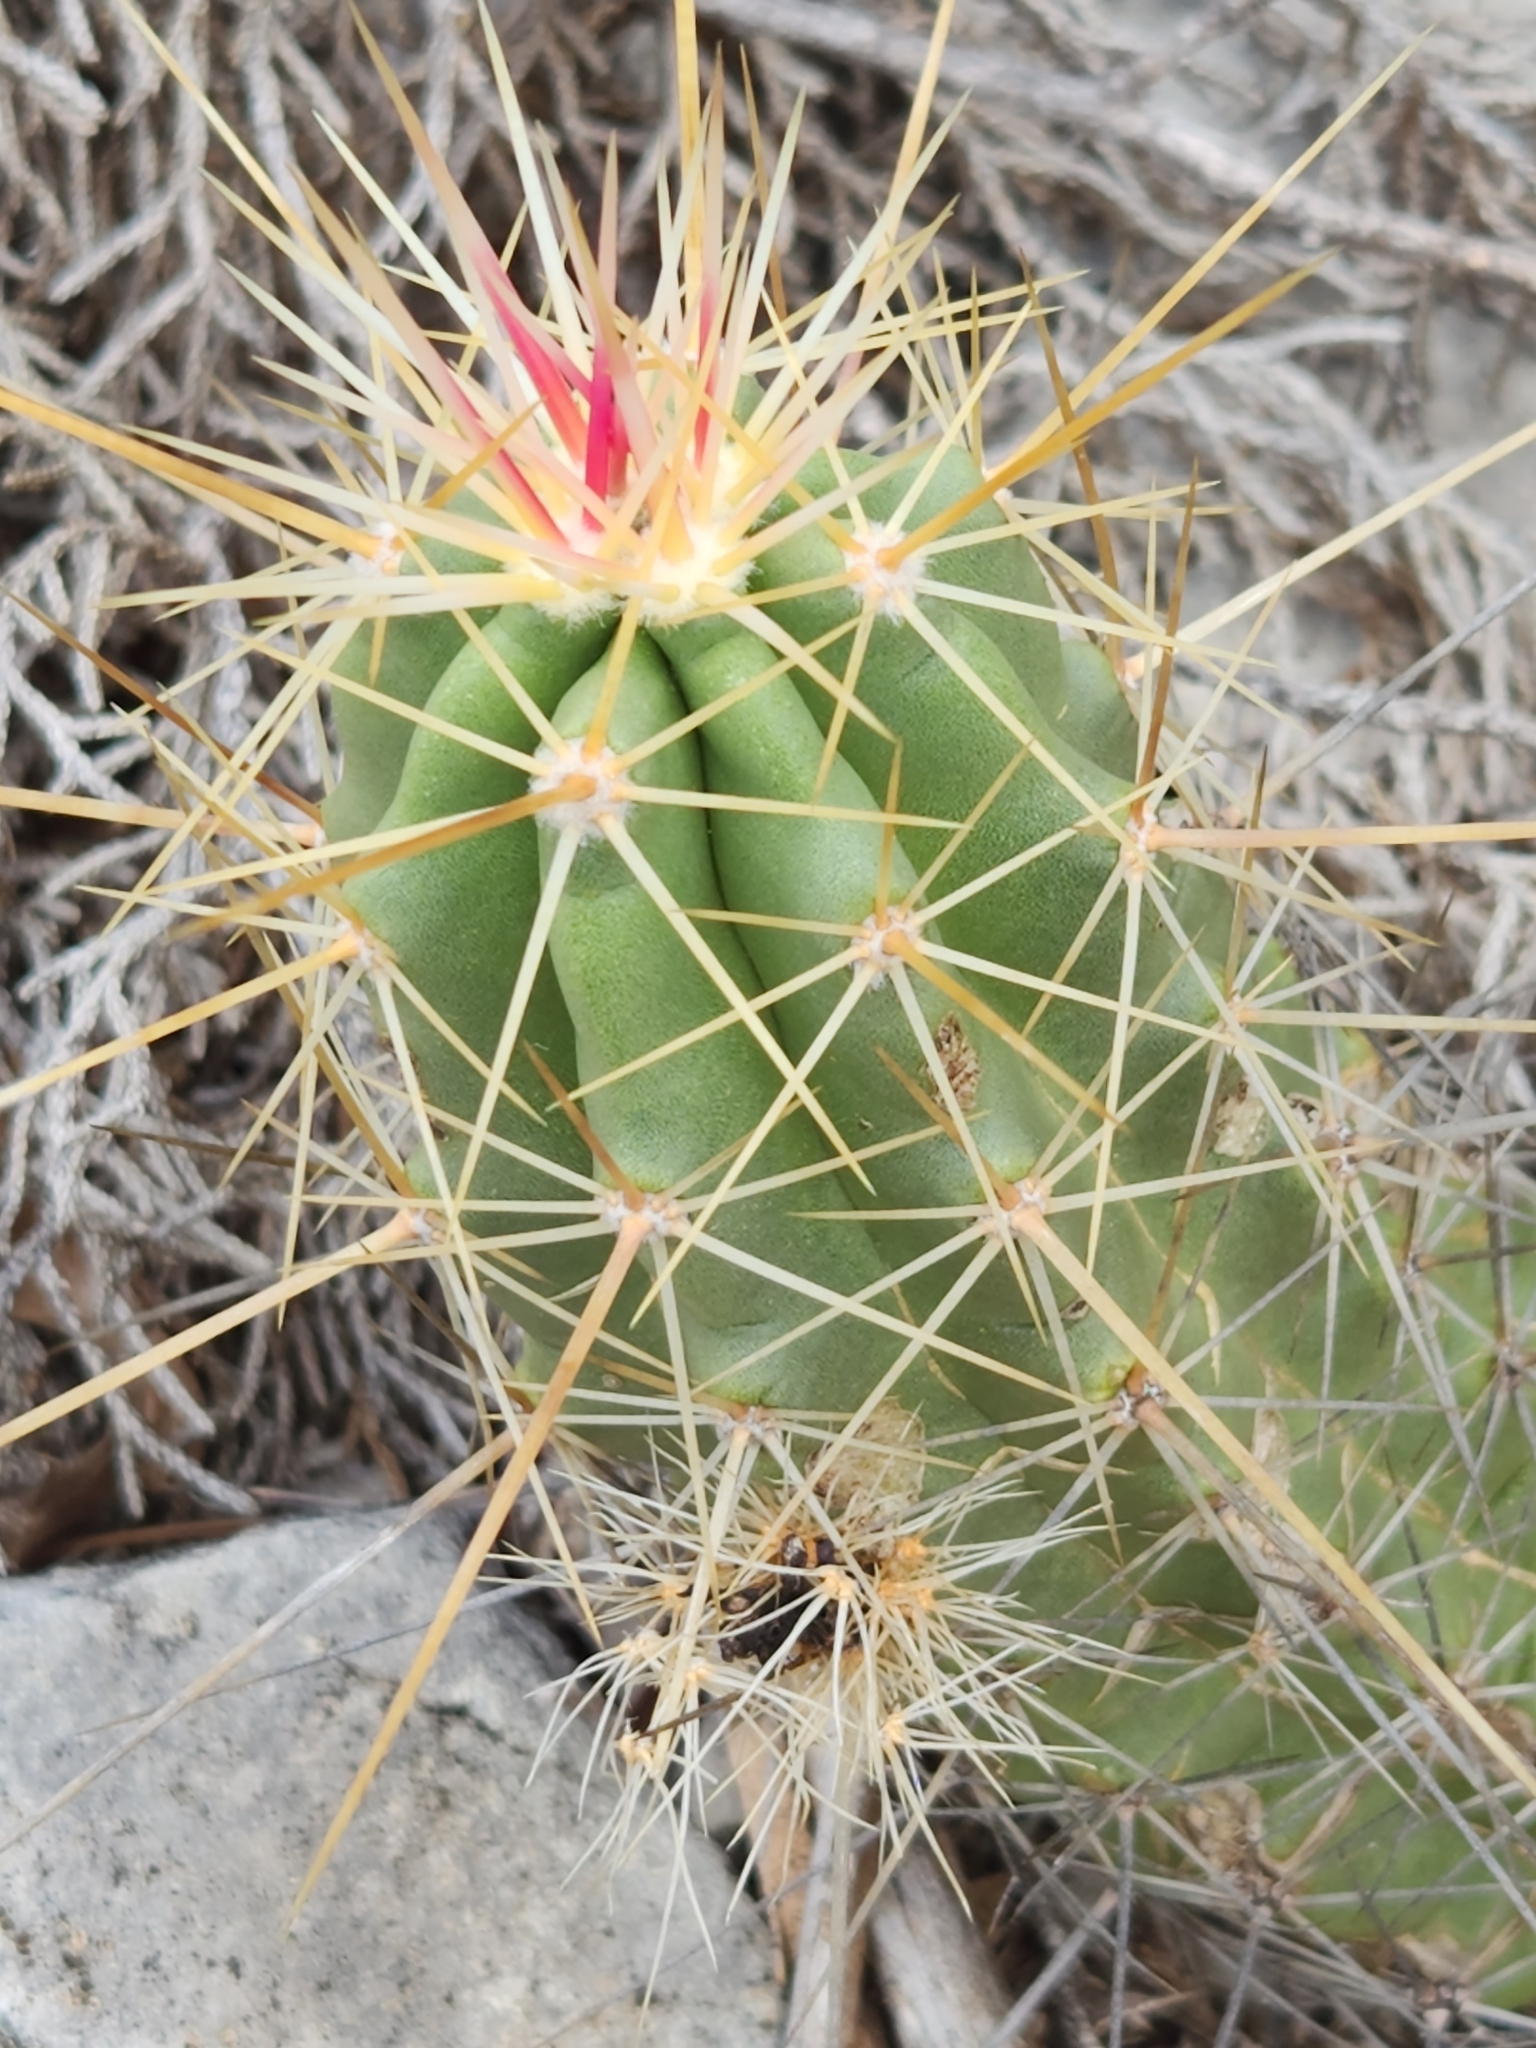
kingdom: Plantae
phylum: Tracheophyta
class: Magnoliopsida
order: Caryophyllales
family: Cactaceae
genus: Echinocereus
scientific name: Echinocereus enneacanthus
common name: Pitaya
